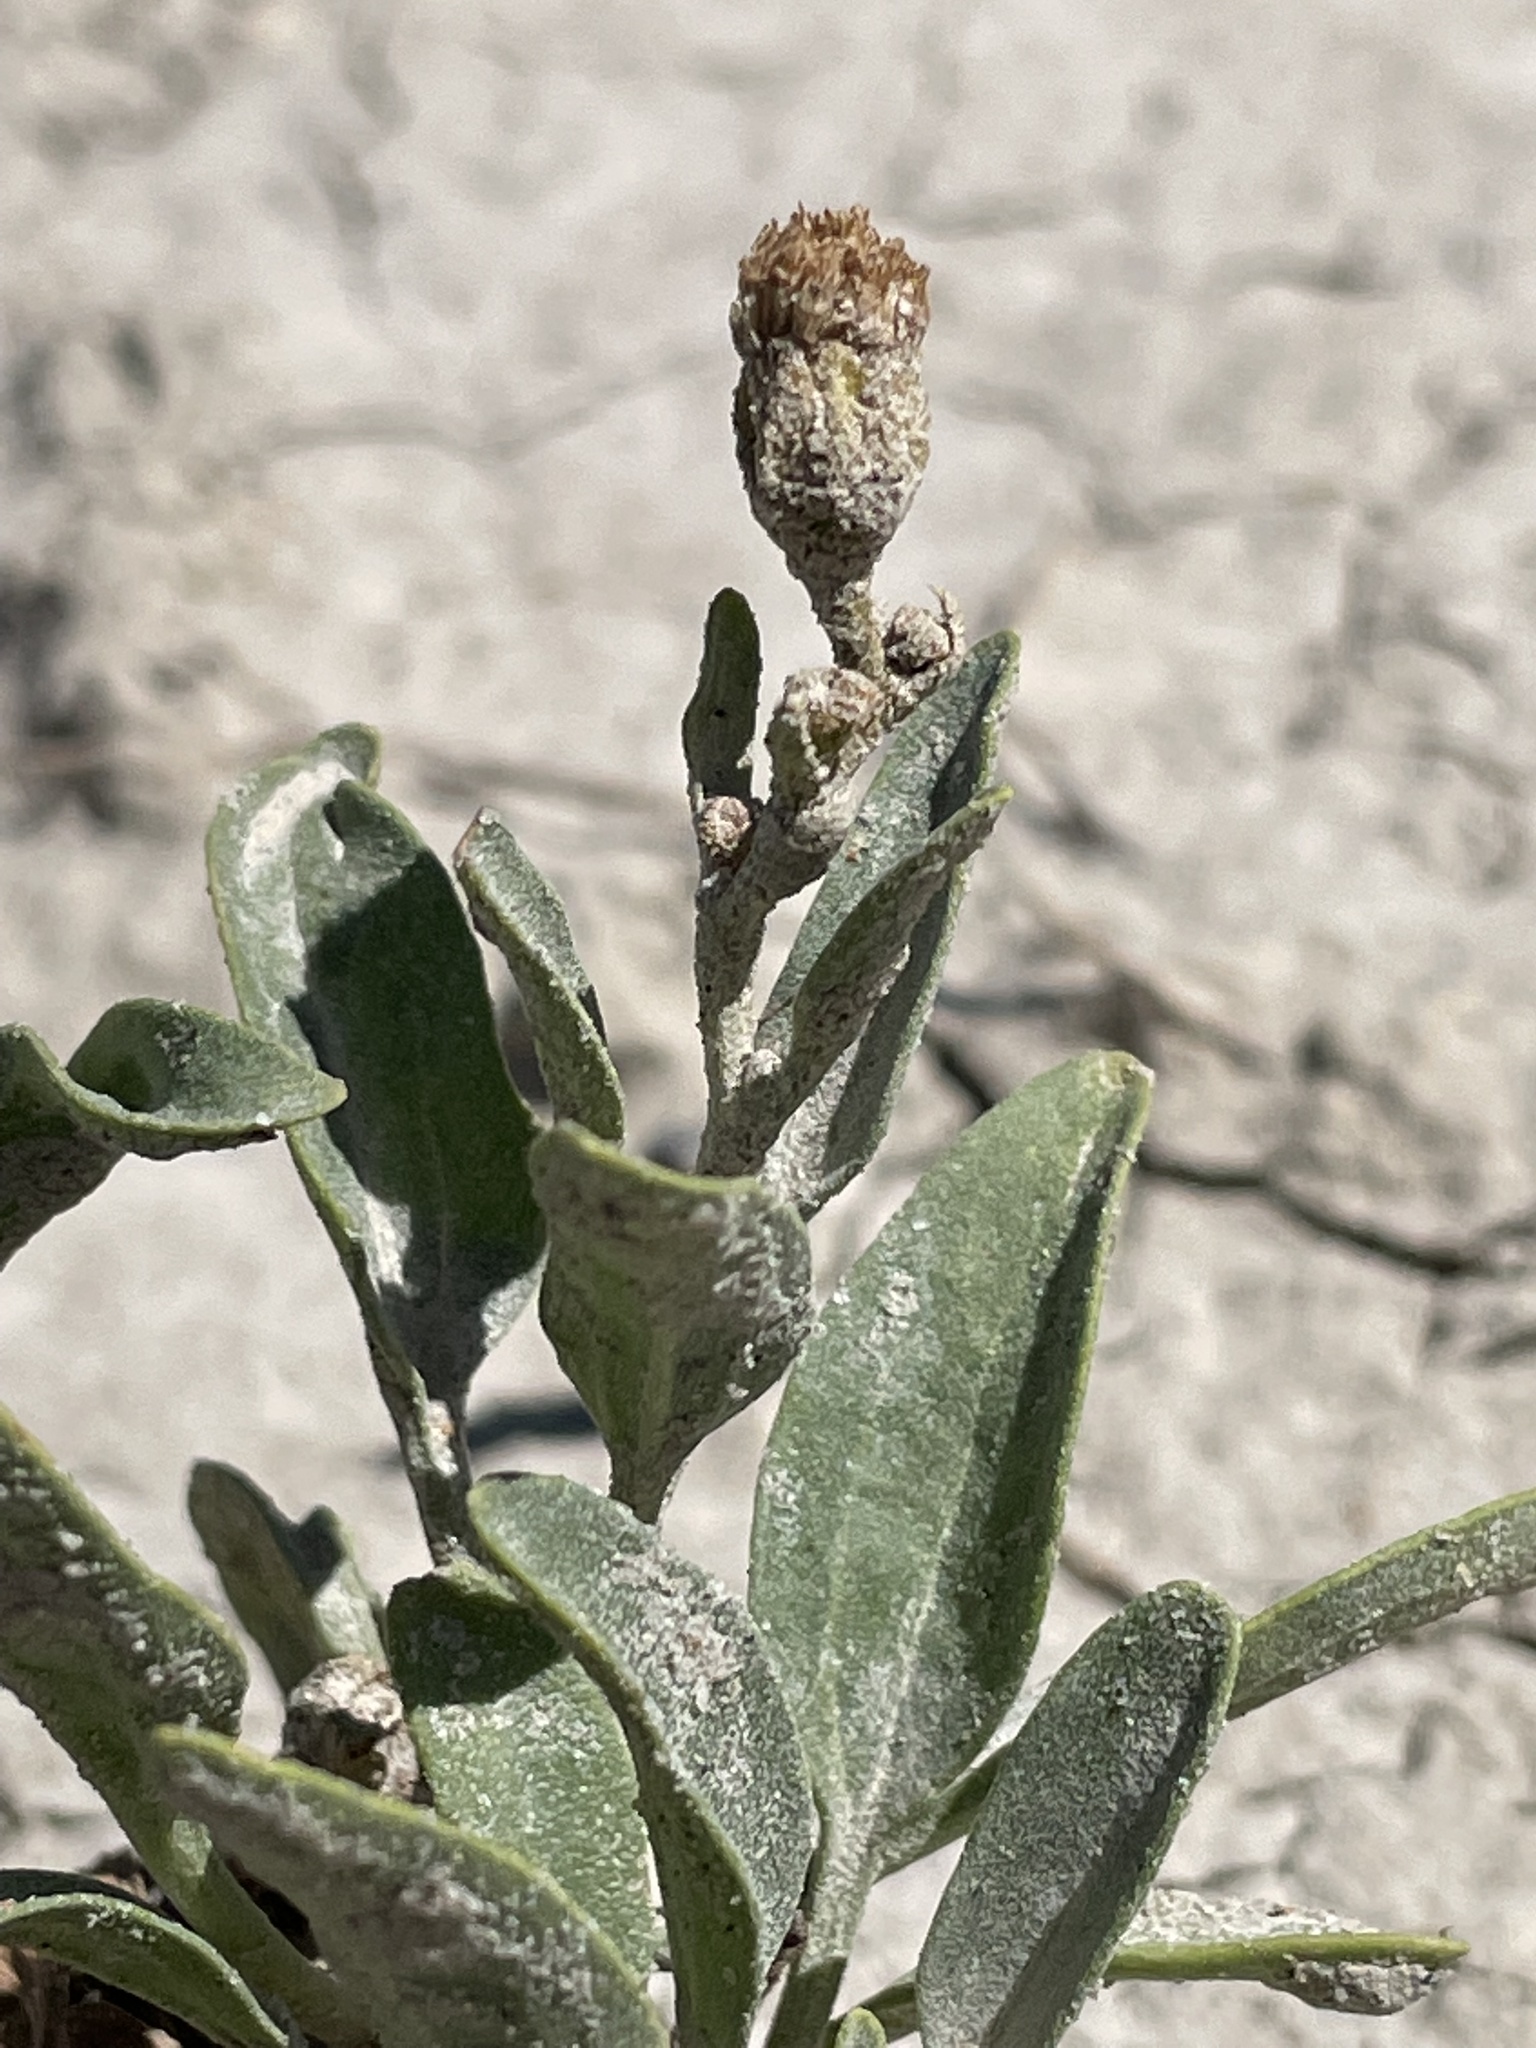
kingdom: Plantae
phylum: Tracheophyta
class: Magnoliopsida
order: Asterales
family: Asteraceae
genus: Platyschkuhria
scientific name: Platyschkuhria integrifolia
